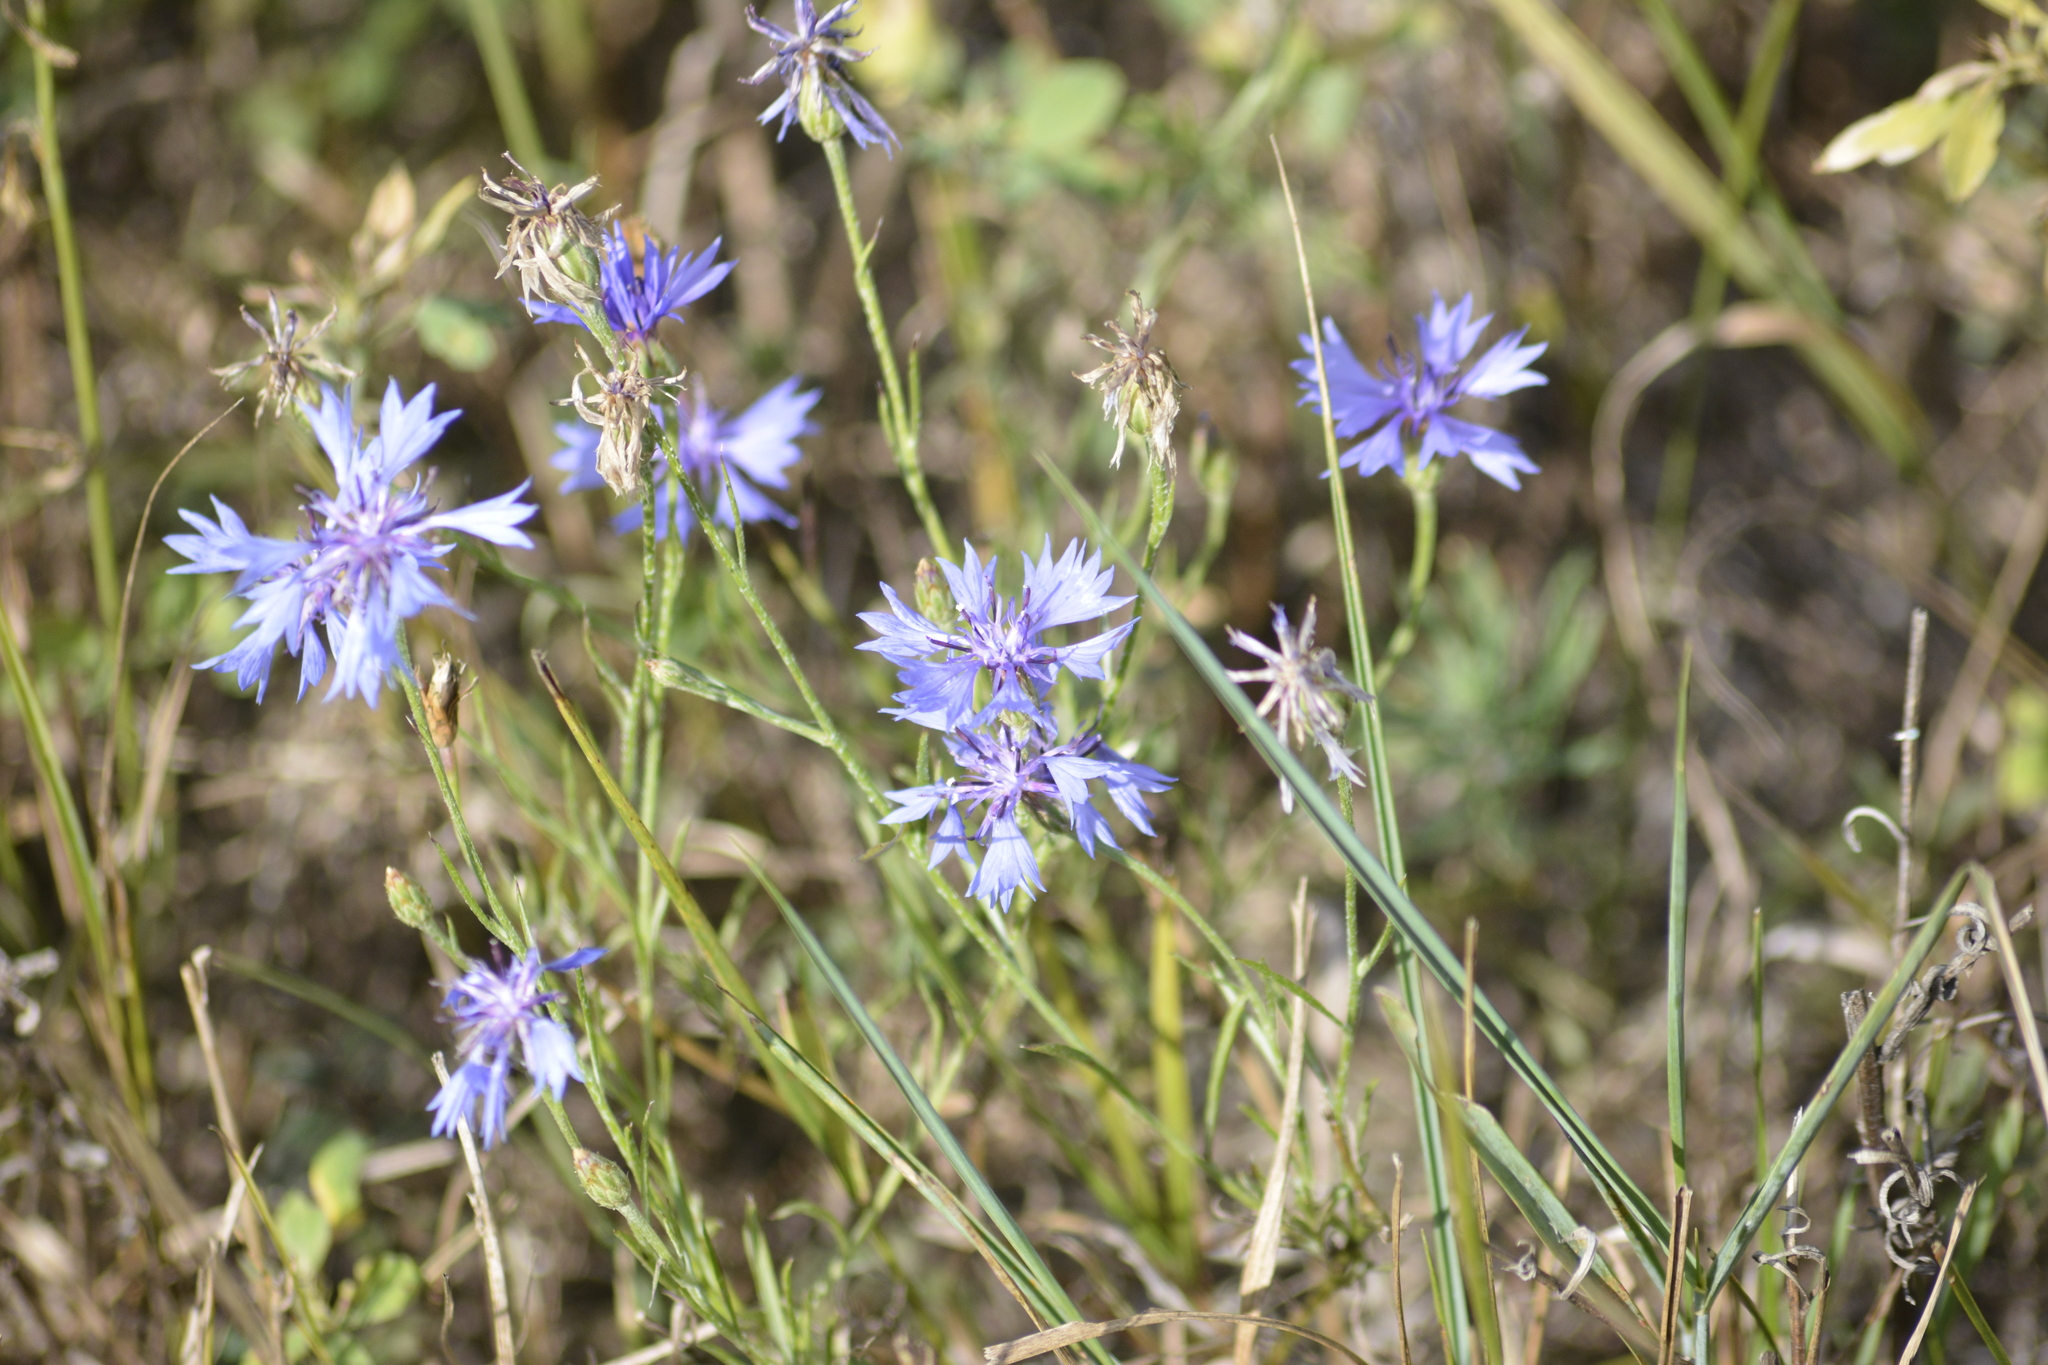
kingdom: Plantae
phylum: Tracheophyta
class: Magnoliopsida
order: Asterales
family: Asteraceae
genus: Centaurea
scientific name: Centaurea cyanus
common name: Cornflower
